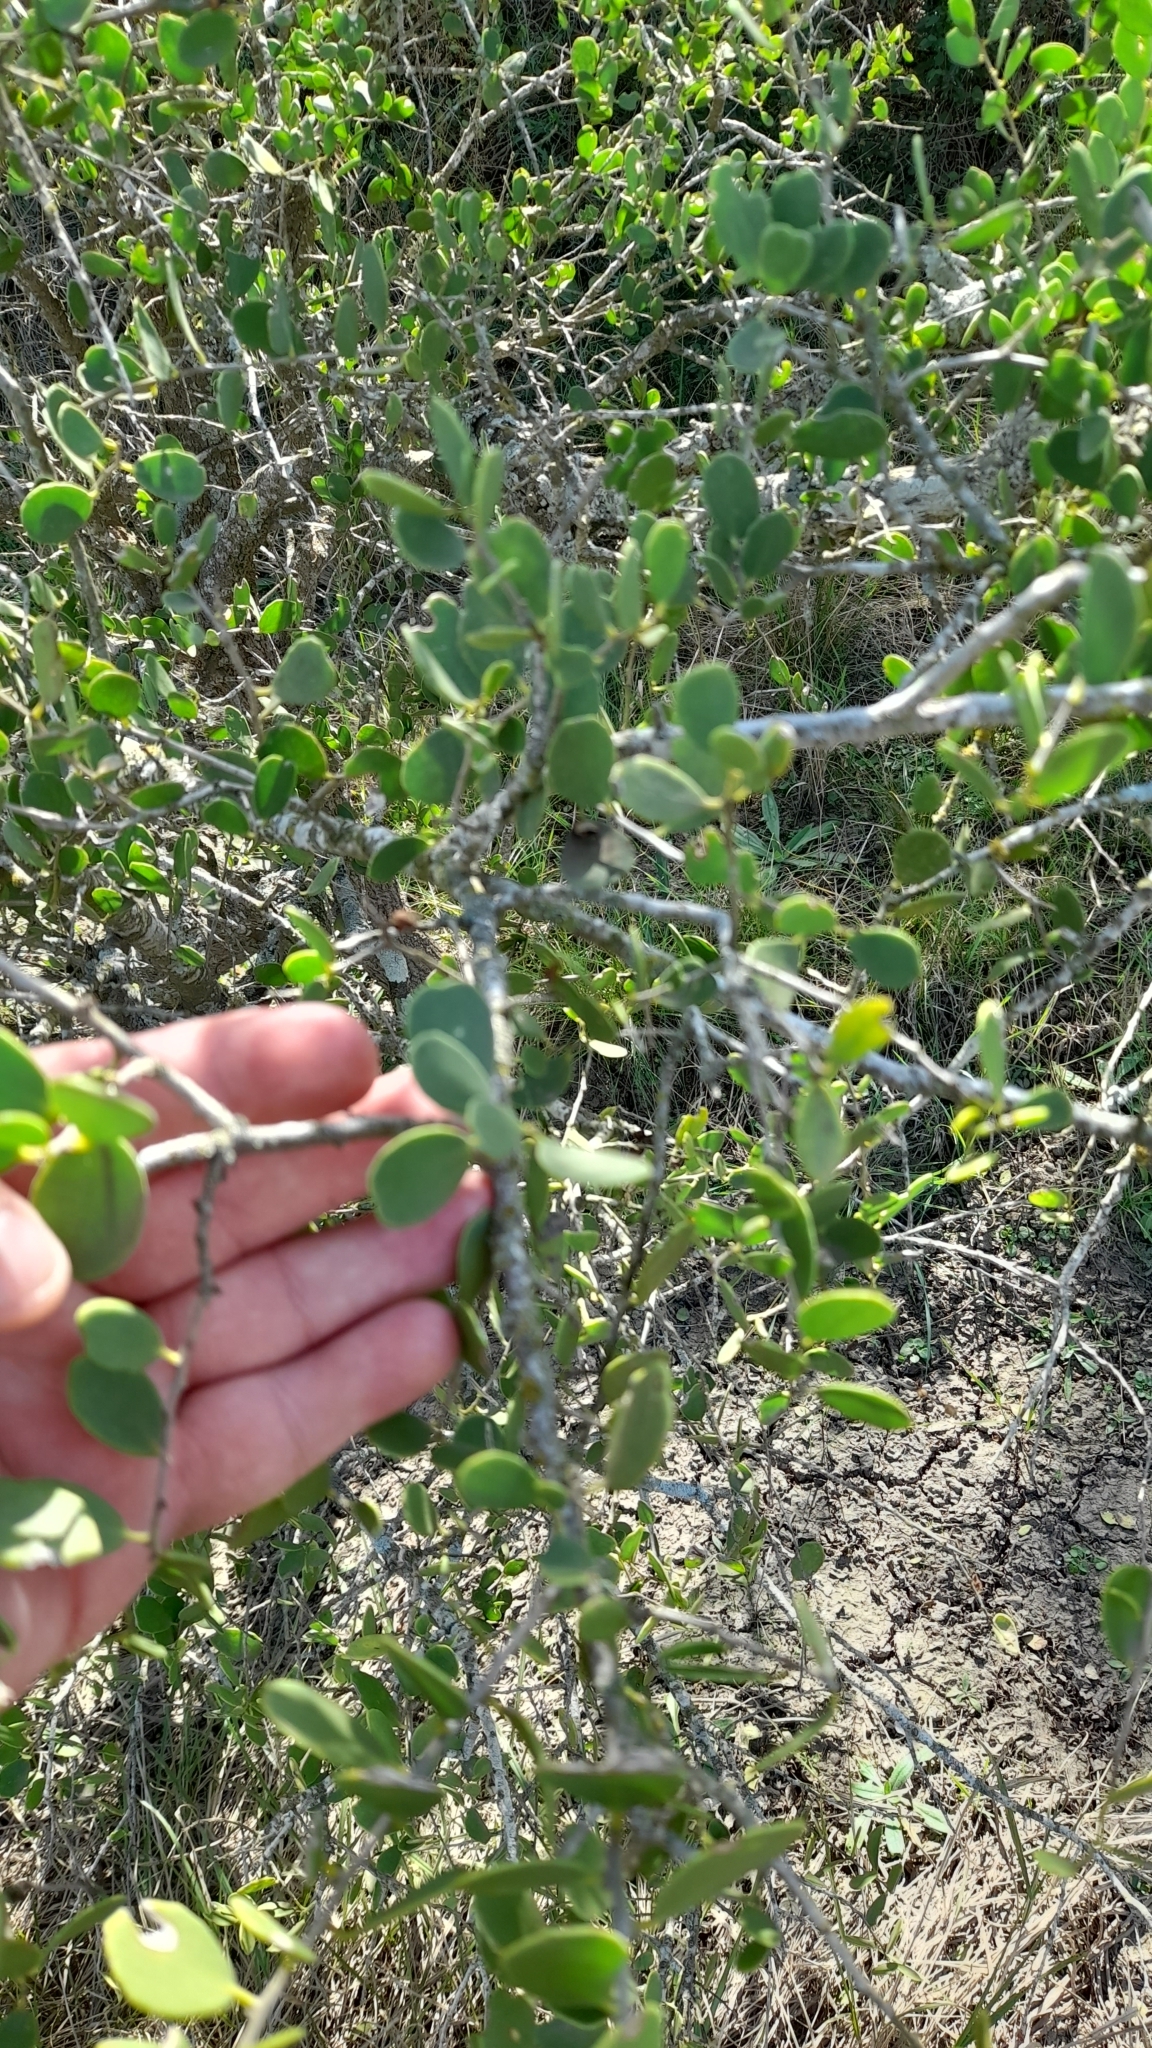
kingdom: Plantae
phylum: Tracheophyta
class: Magnoliopsida
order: Celastrales
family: Celastraceae
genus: Tricerma
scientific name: Tricerma vitis-idaeum
